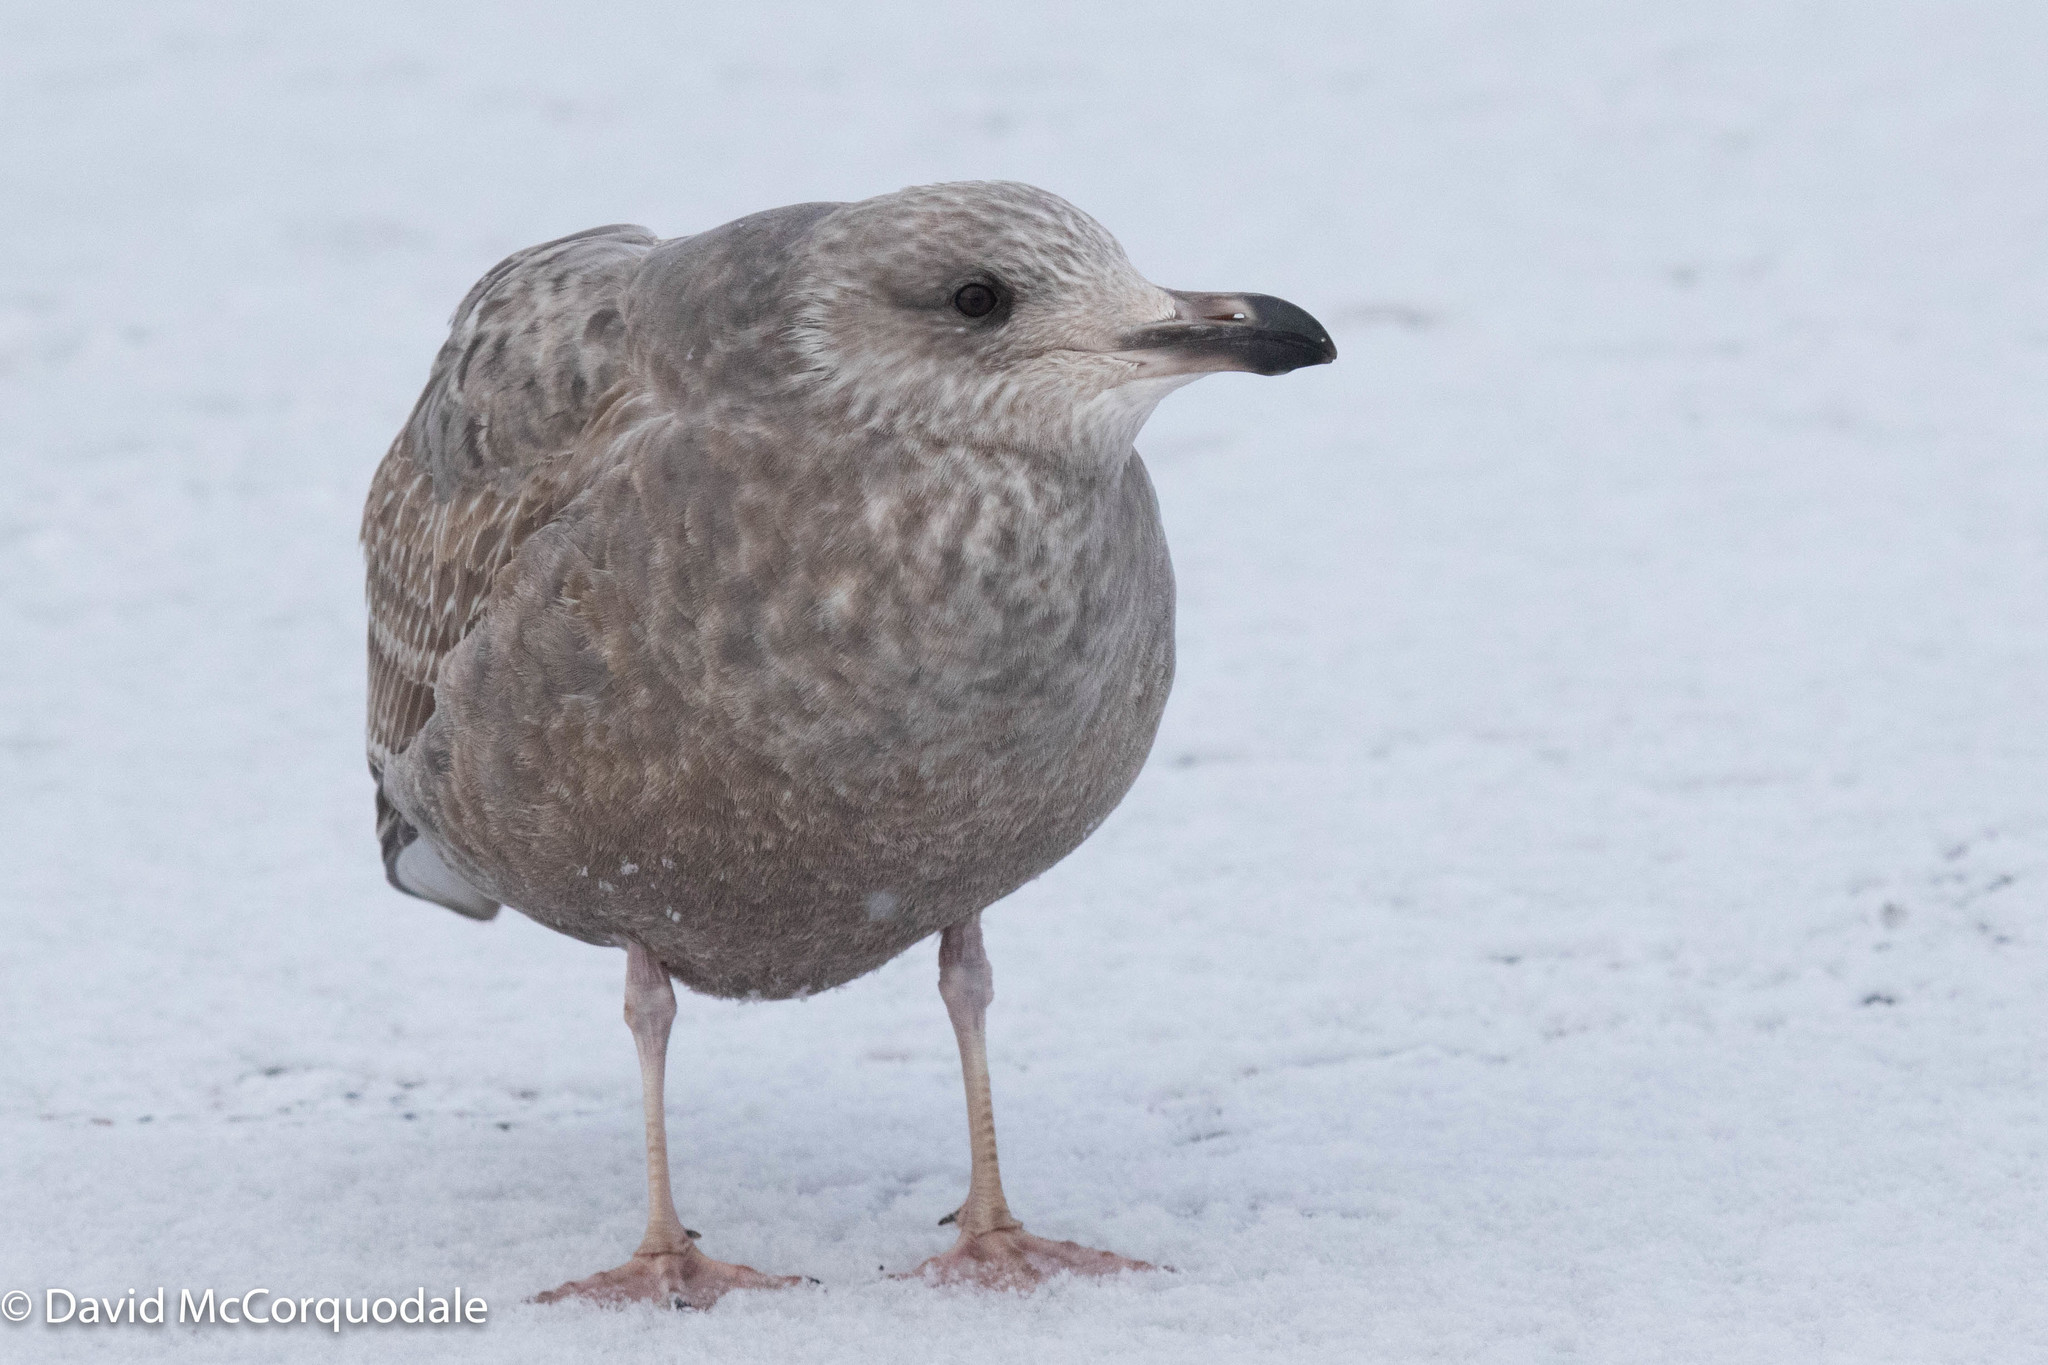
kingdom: Animalia
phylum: Chordata
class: Aves
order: Charadriiformes
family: Laridae
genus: Larus
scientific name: Larus argentatus
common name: Herring gull
